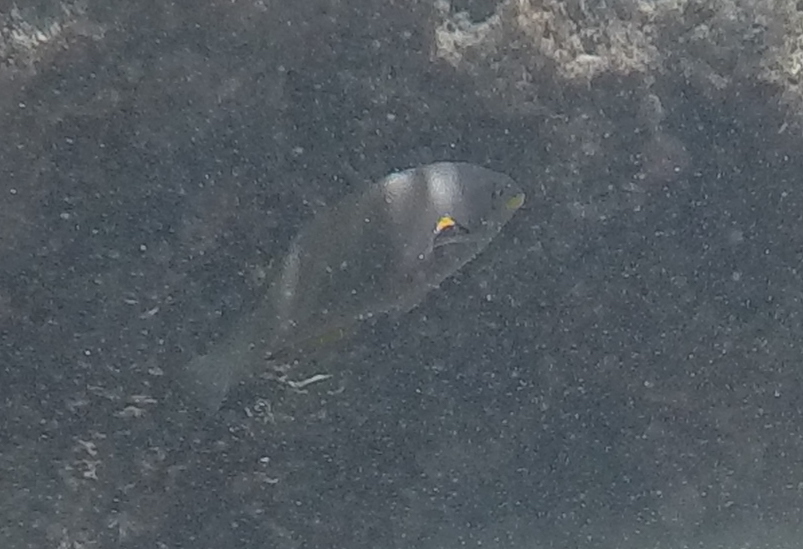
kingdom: Animalia
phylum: Chordata
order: Perciformes
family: Labridae
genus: Stethojulis
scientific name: Stethojulis balteata
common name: Belted wrasse
